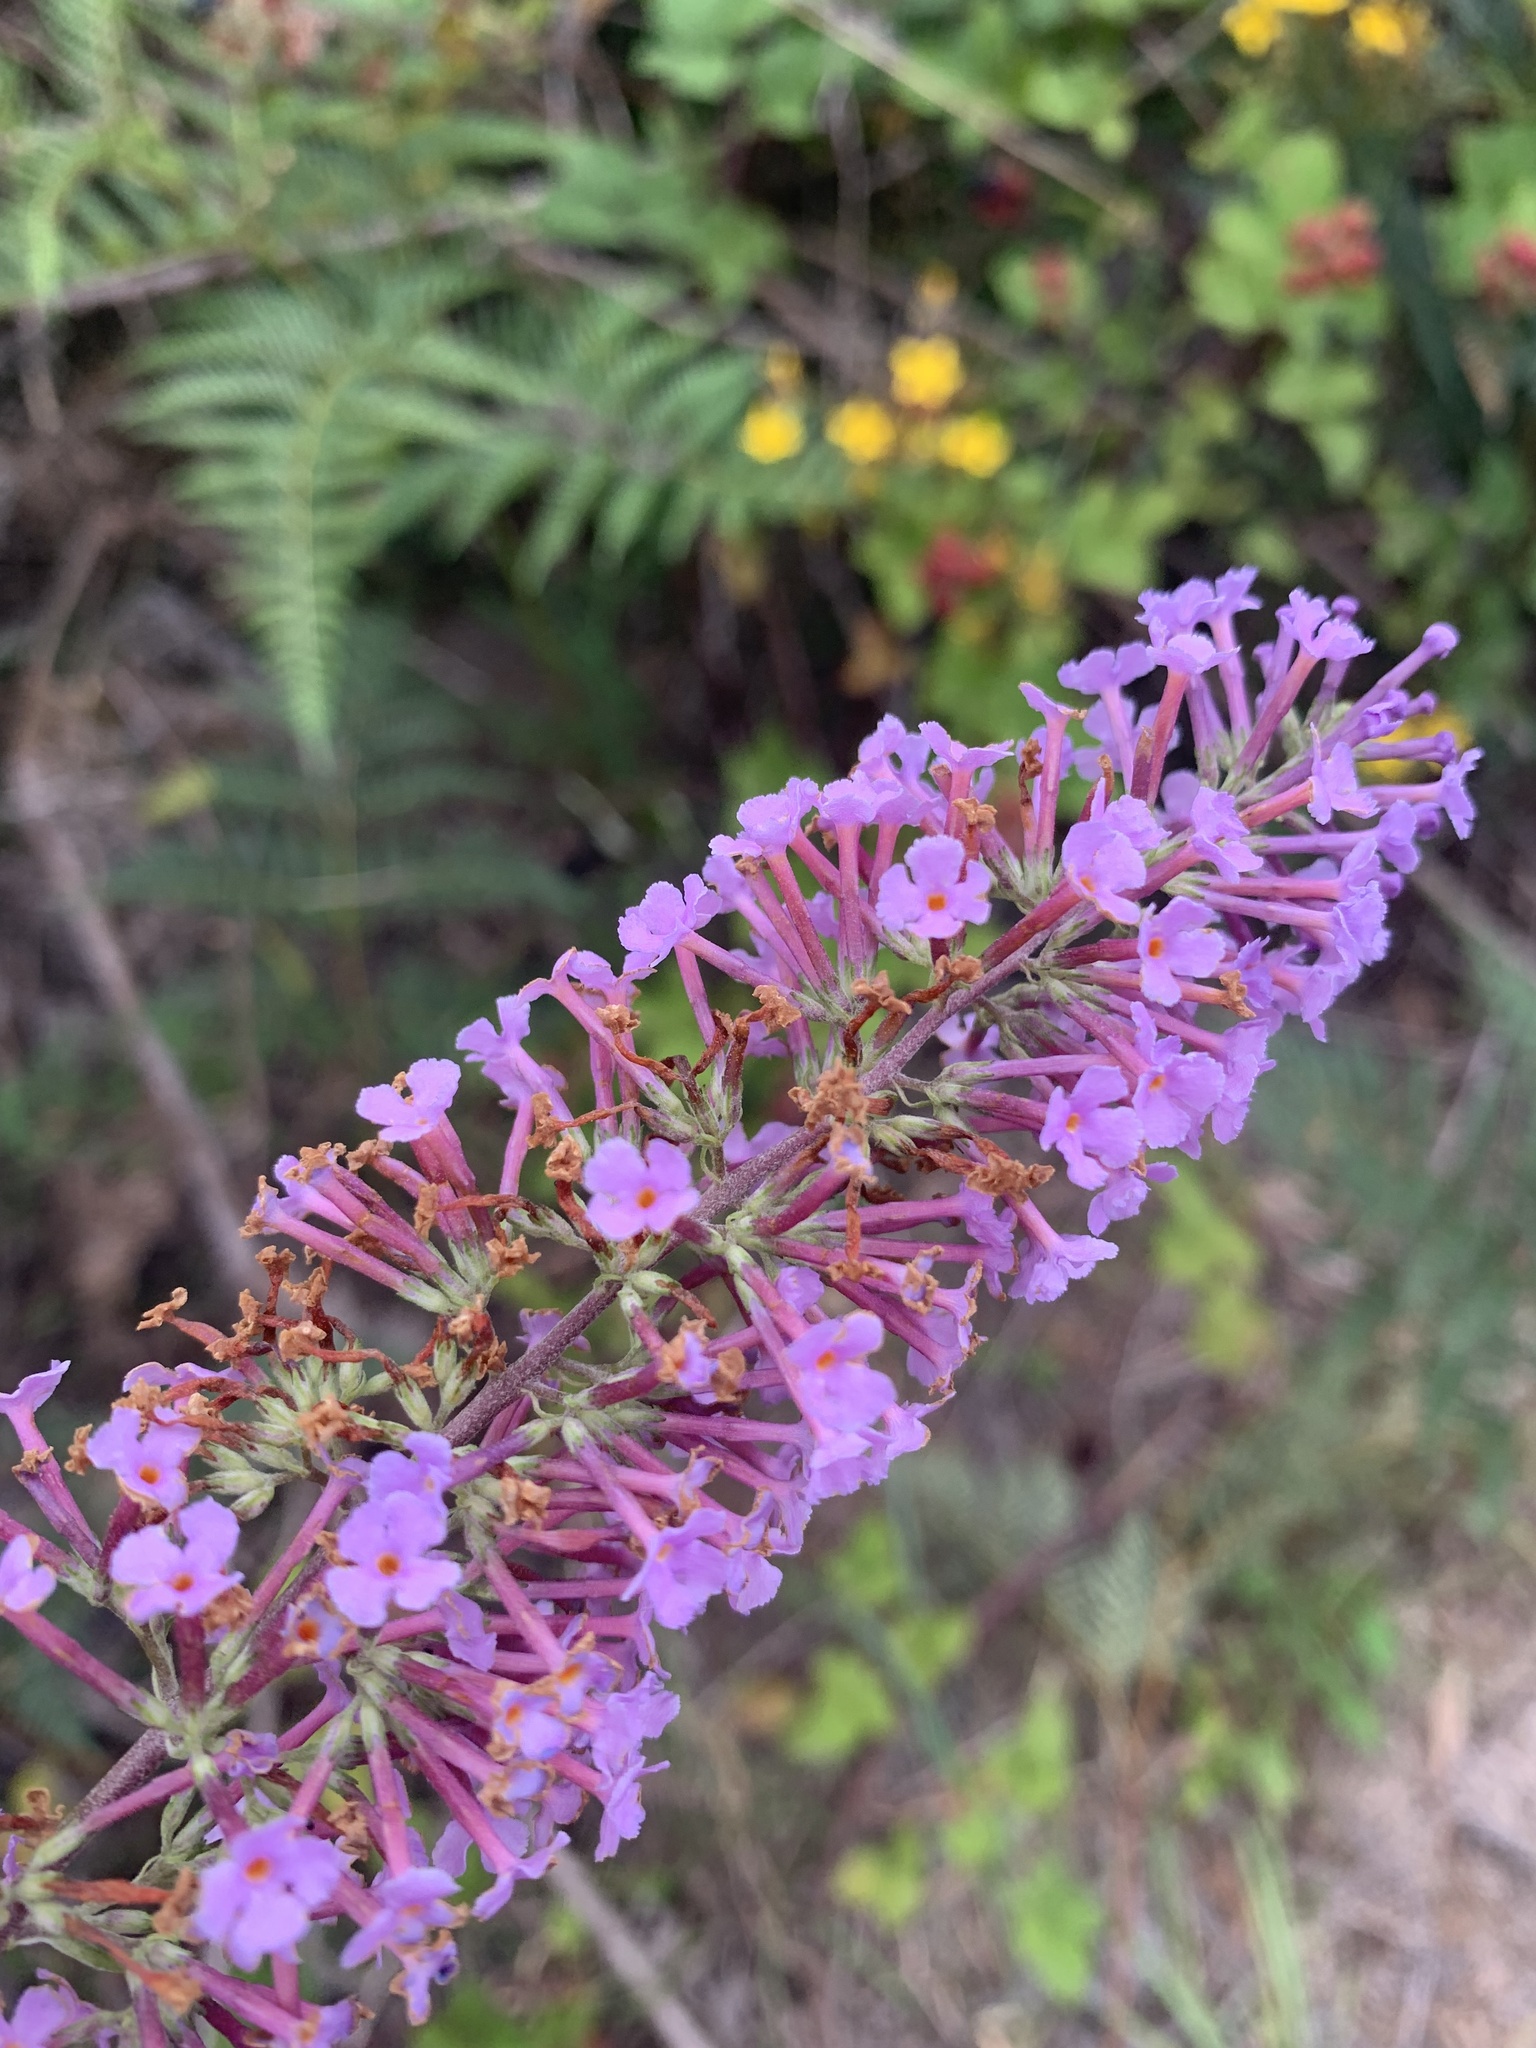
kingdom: Plantae
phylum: Tracheophyta
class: Magnoliopsida
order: Lamiales
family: Scrophulariaceae
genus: Buddleja
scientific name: Buddleja davidii
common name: Butterfly-bush
